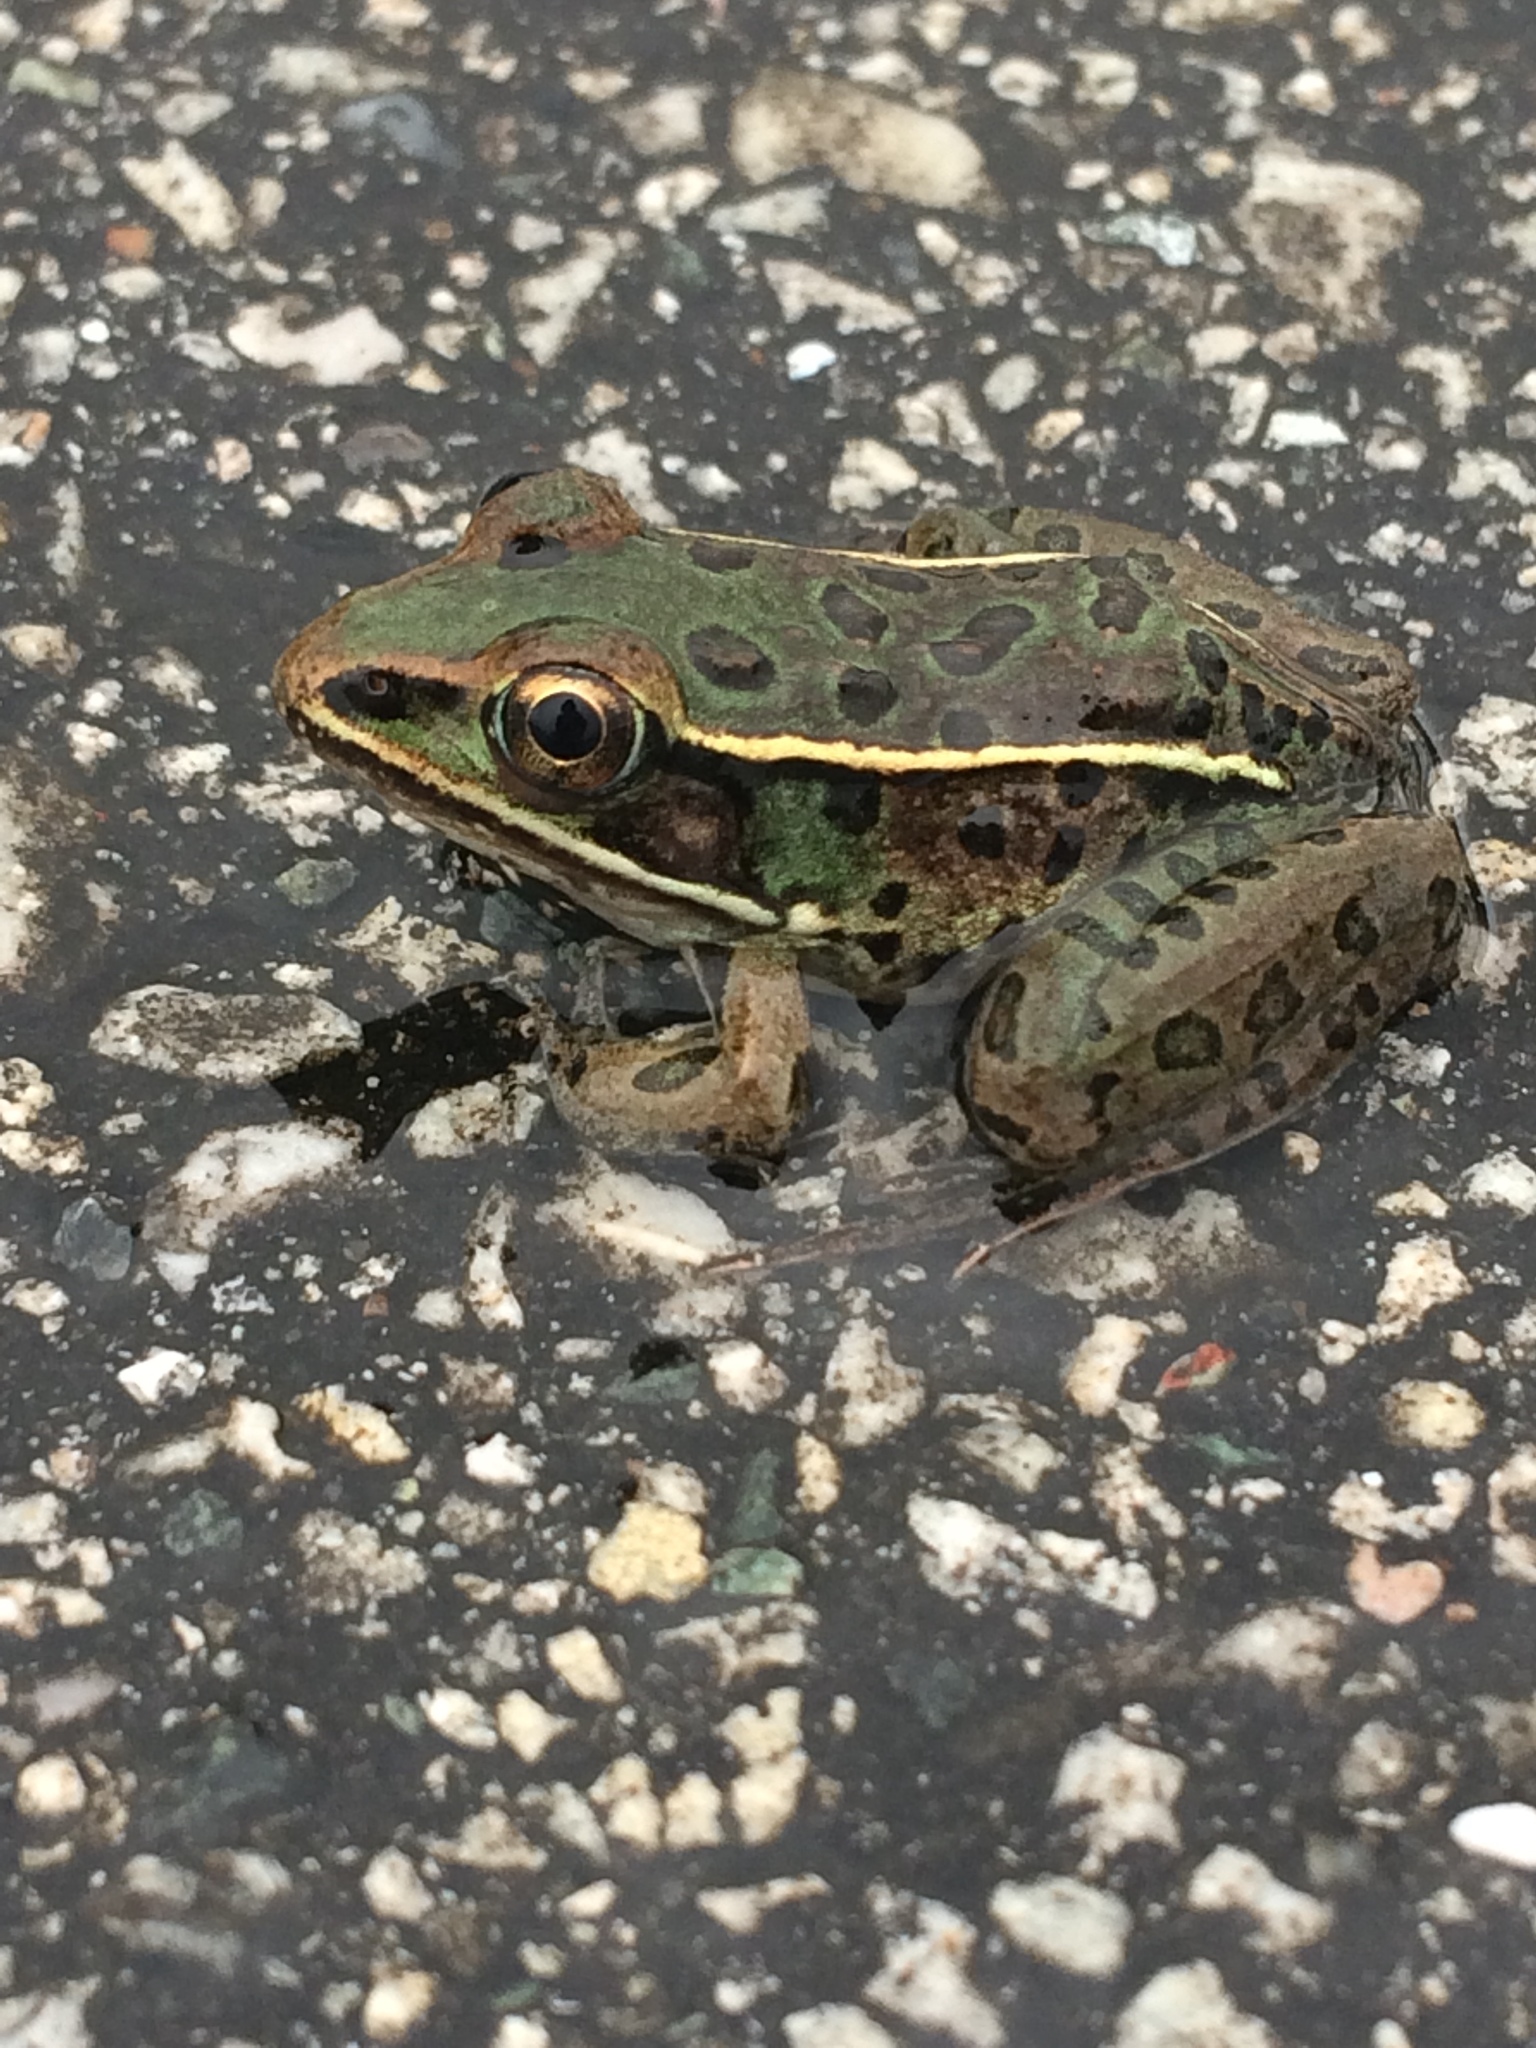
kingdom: Animalia
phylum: Chordata
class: Amphibia
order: Anura
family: Ranidae
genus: Lithobates
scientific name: Lithobates sphenocephalus
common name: Southern leopard frog
